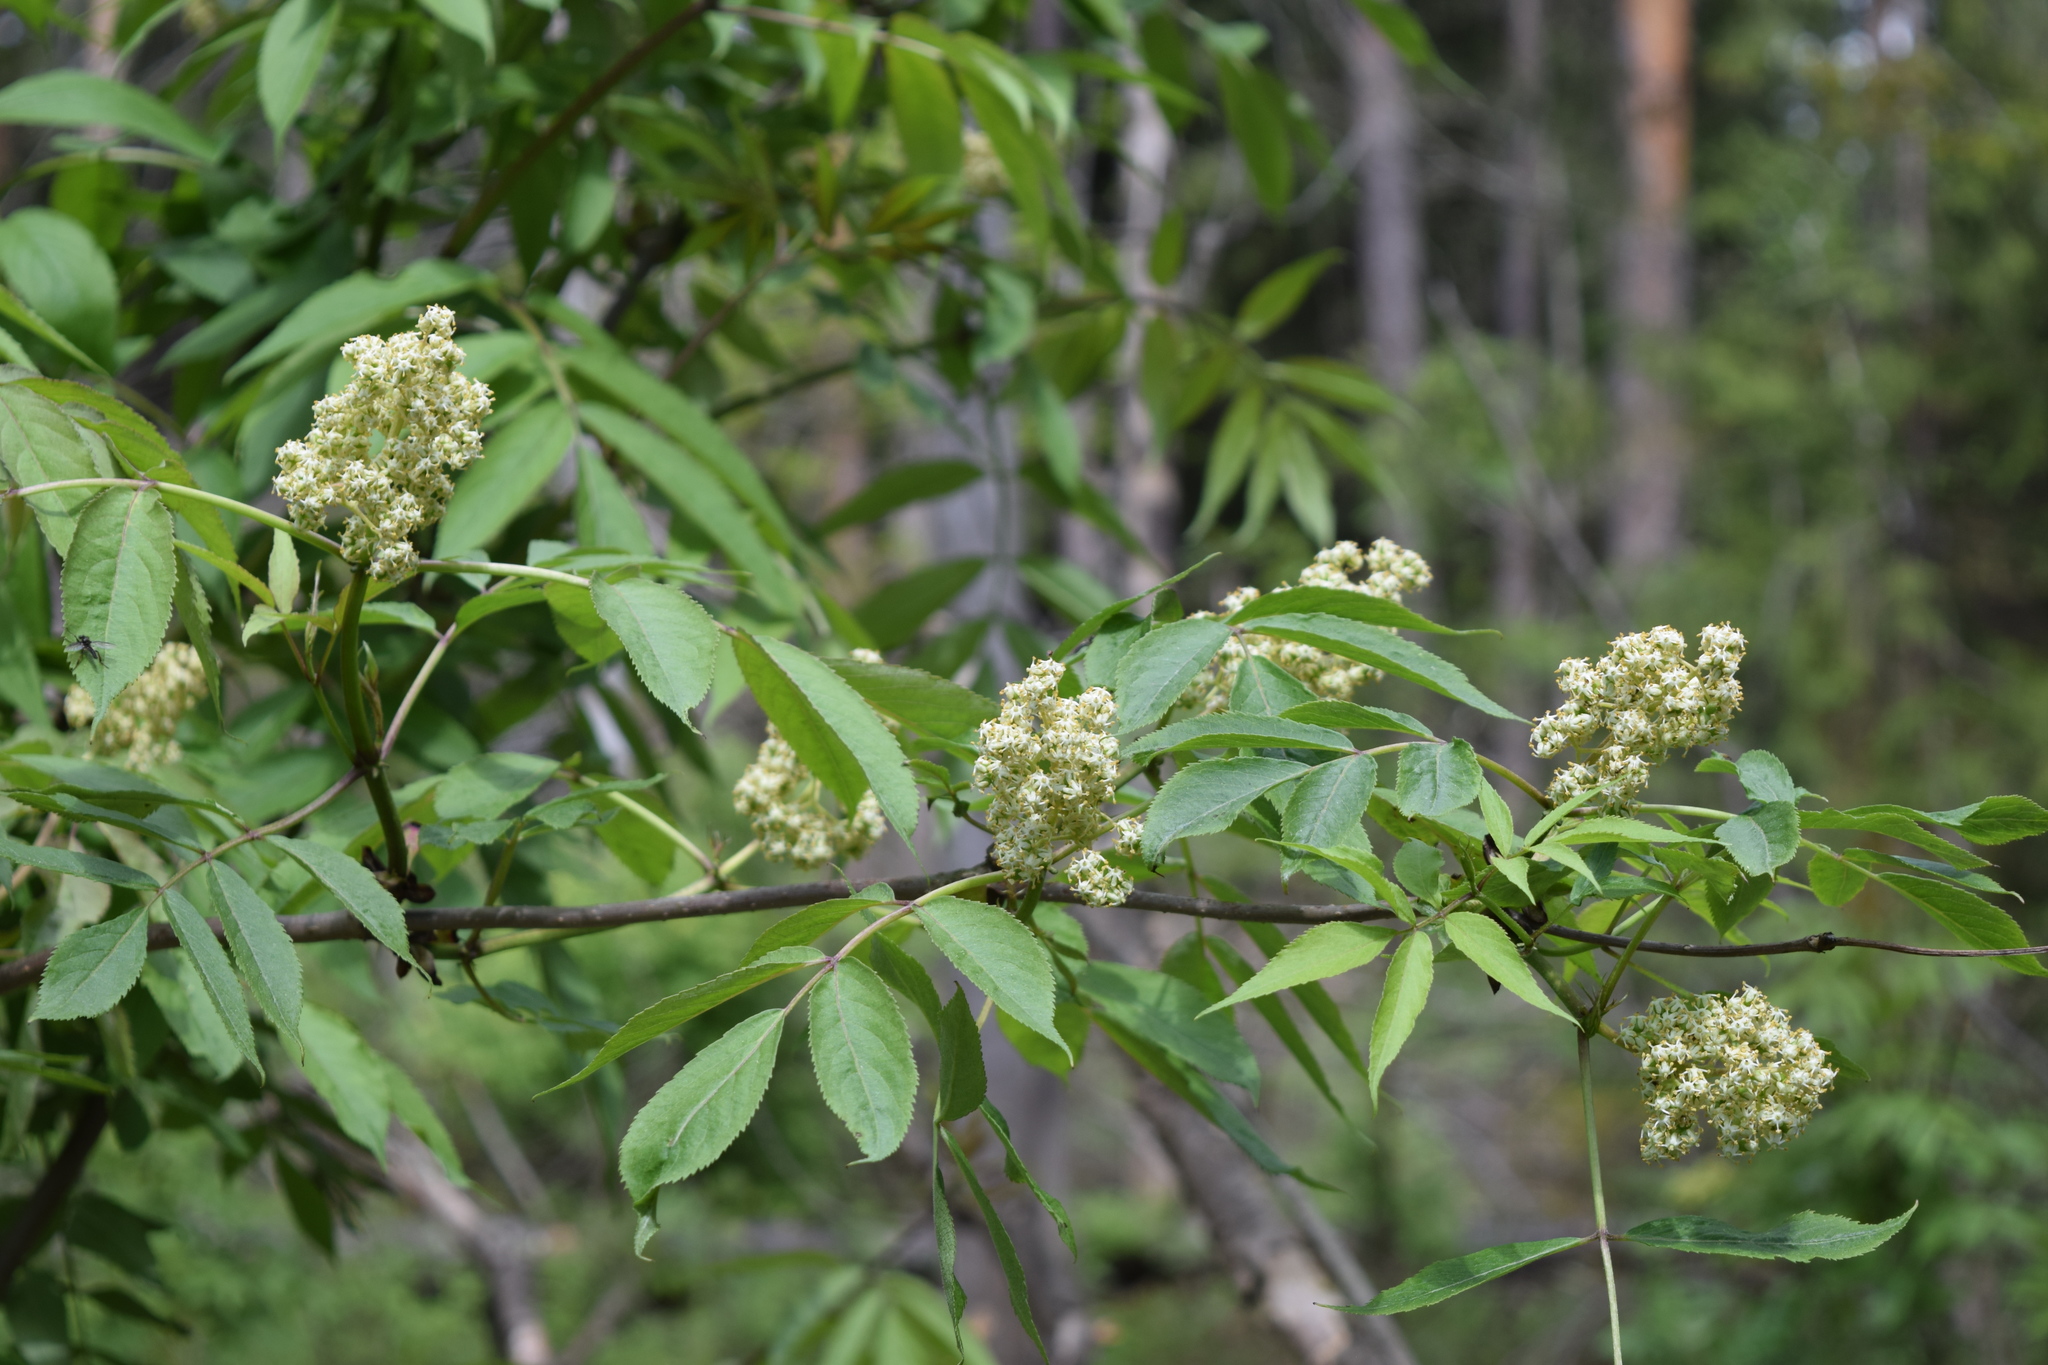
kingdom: Plantae
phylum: Tracheophyta
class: Magnoliopsida
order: Dipsacales
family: Viburnaceae
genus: Sambucus
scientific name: Sambucus racemosa
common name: Red-berried elder
